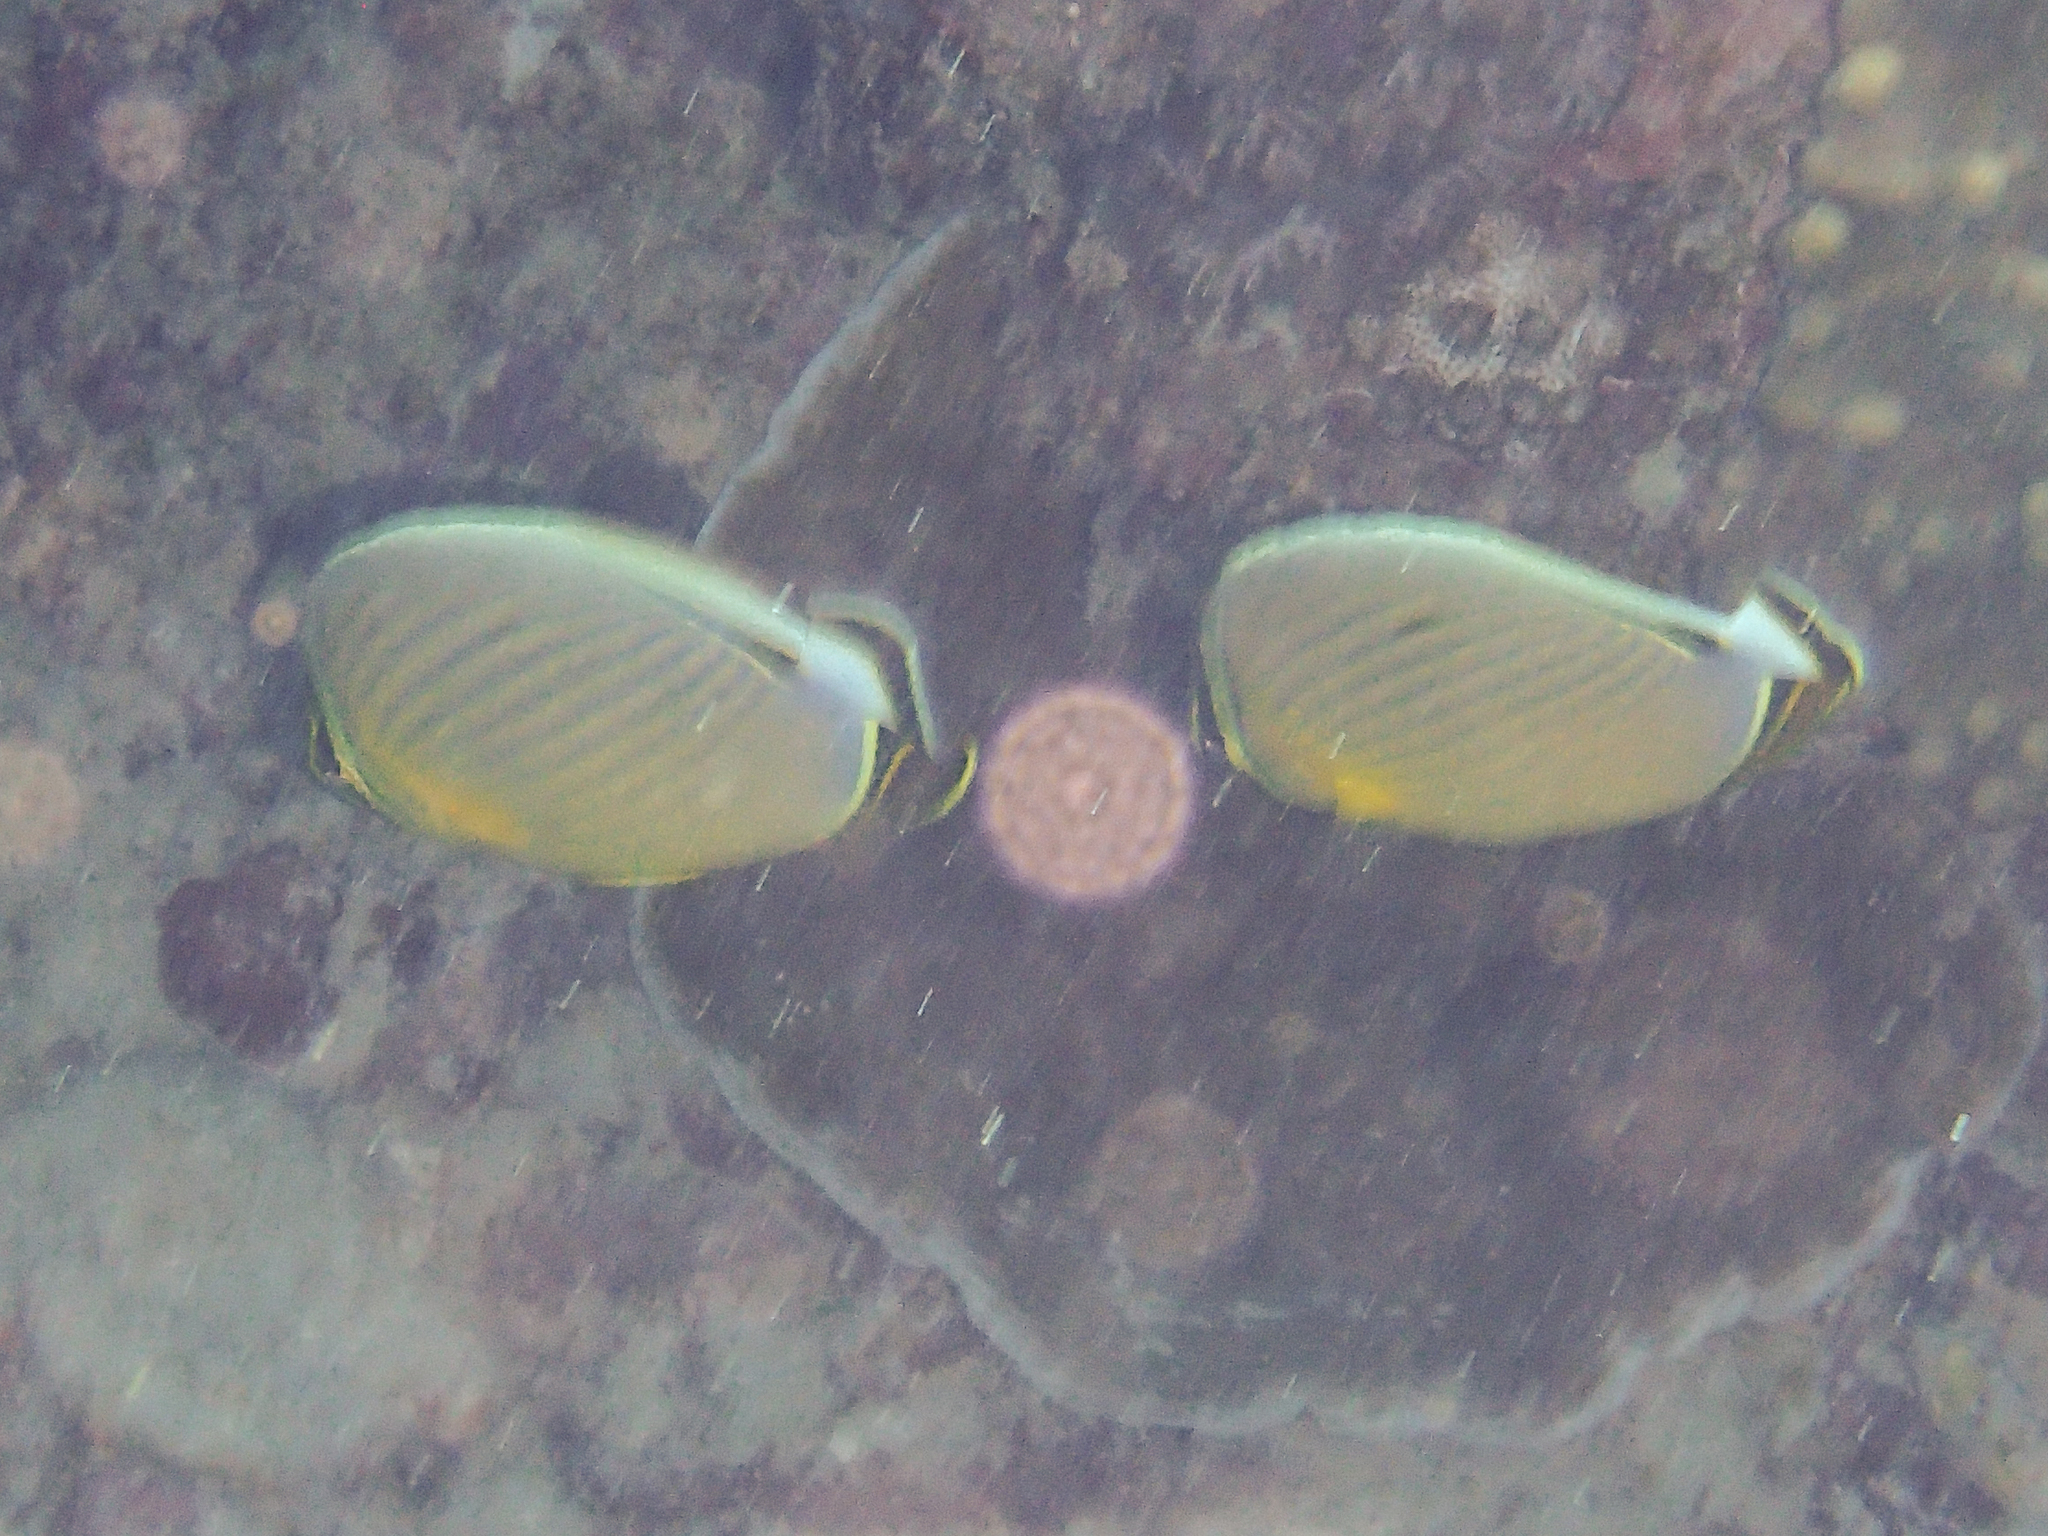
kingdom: Animalia
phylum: Chordata
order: Perciformes
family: Chaetodontidae
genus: Chaetodon
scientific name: Chaetodon lunulatus
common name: Redfin butterflyfish
